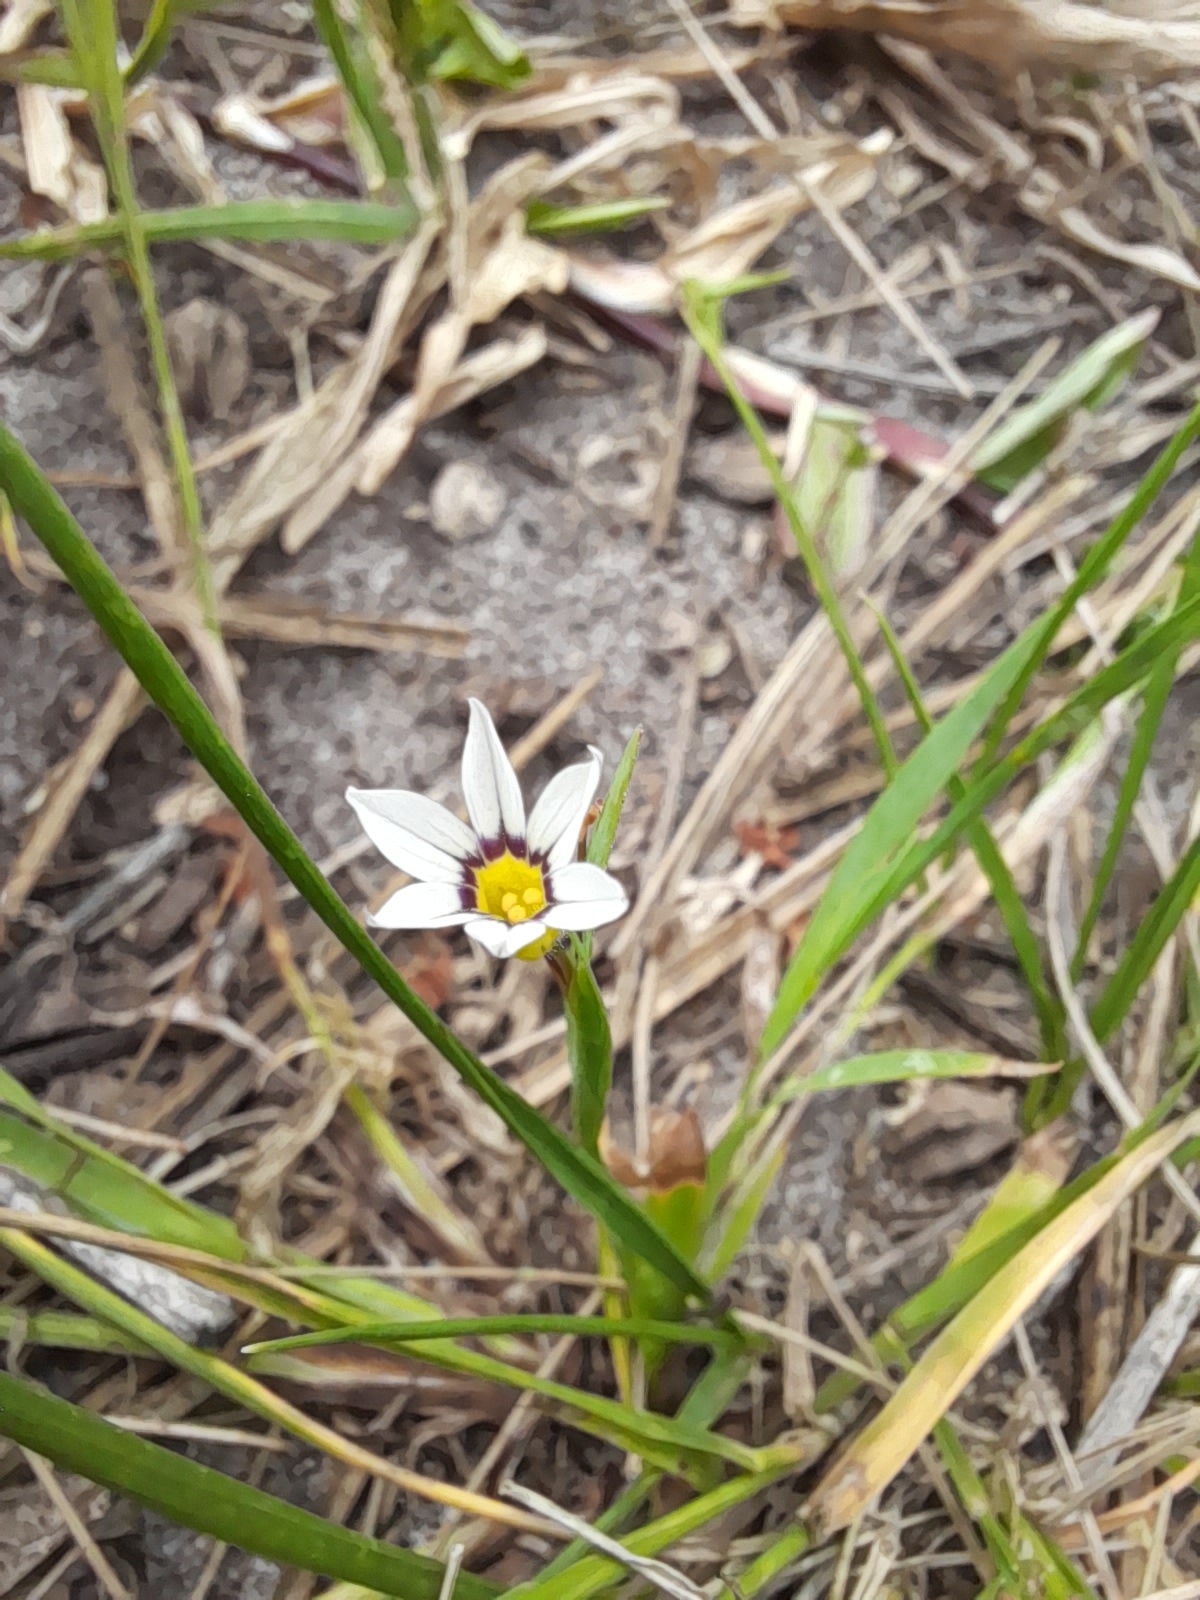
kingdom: Plantae
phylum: Tracheophyta
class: Liliopsida
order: Asparagales
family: Iridaceae
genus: Sisyrinchium
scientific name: Sisyrinchium micranthum
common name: Bermuda pigroot
